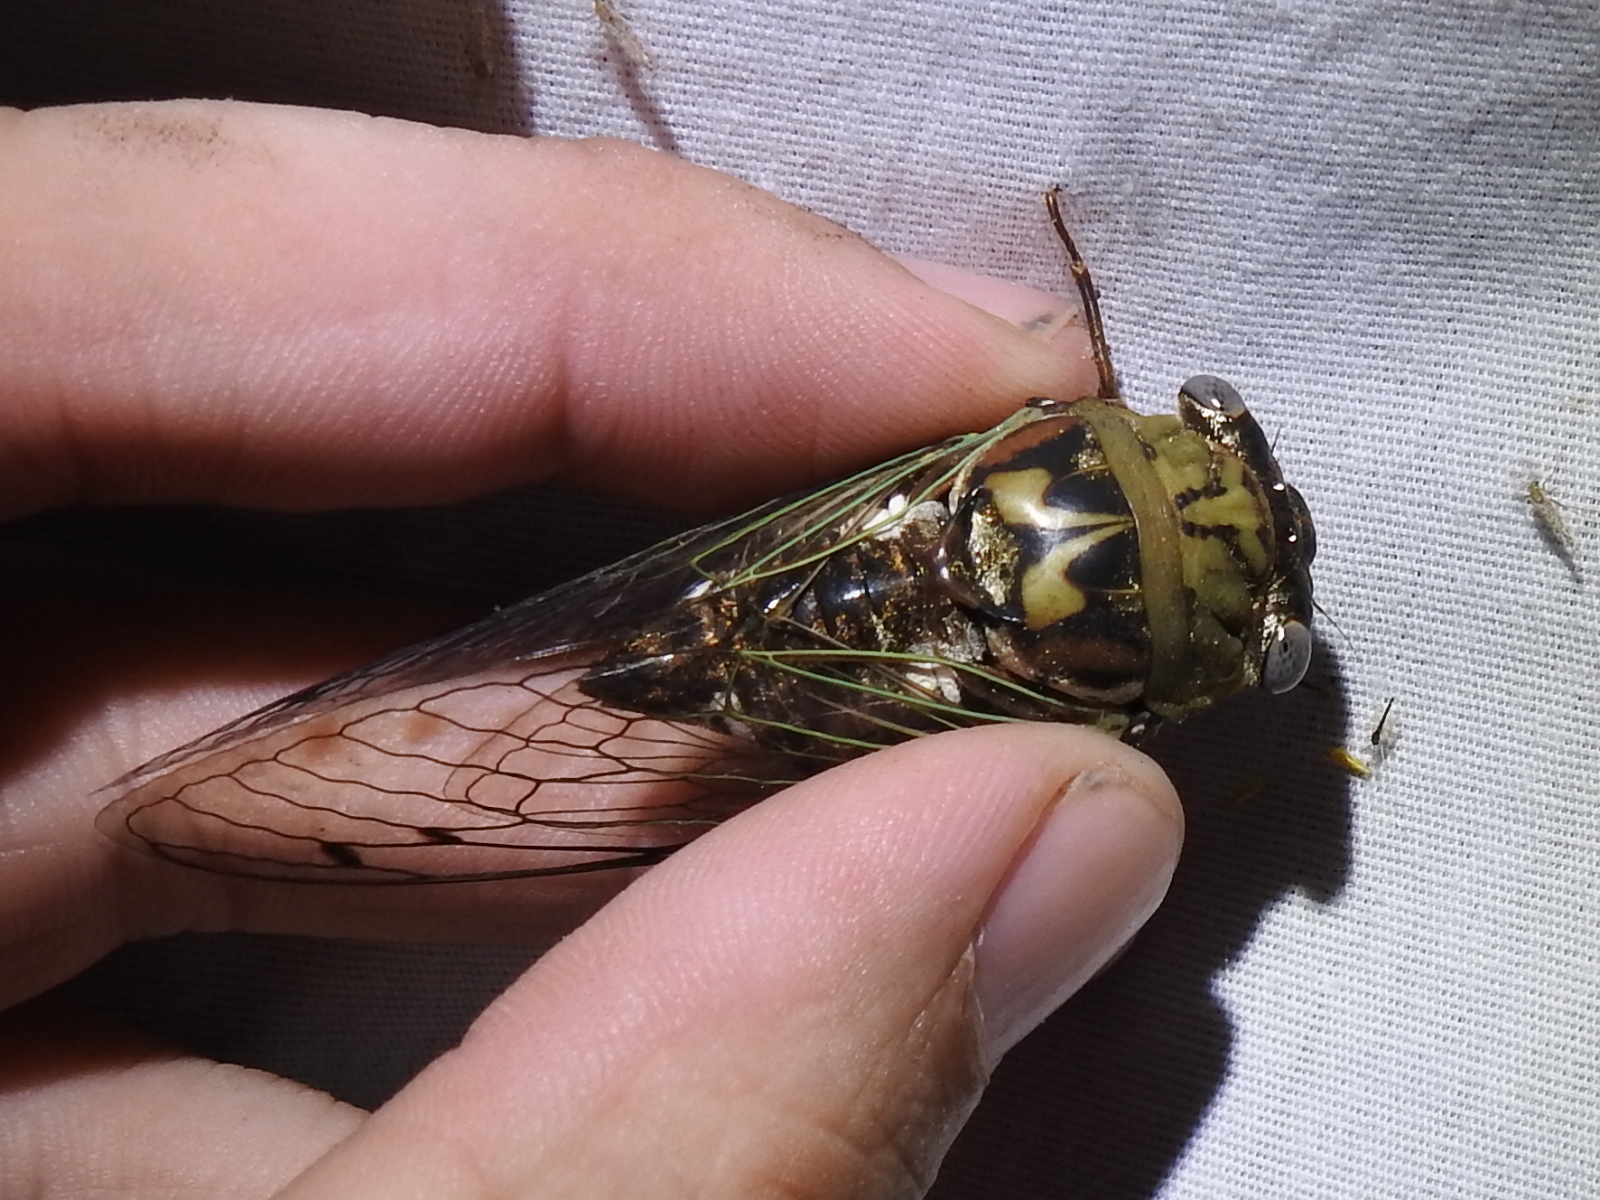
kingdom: Animalia
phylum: Arthropoda
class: Insecta
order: Hemiptera
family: Cicadidae
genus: Megatibicen
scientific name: Megatibicen resh
